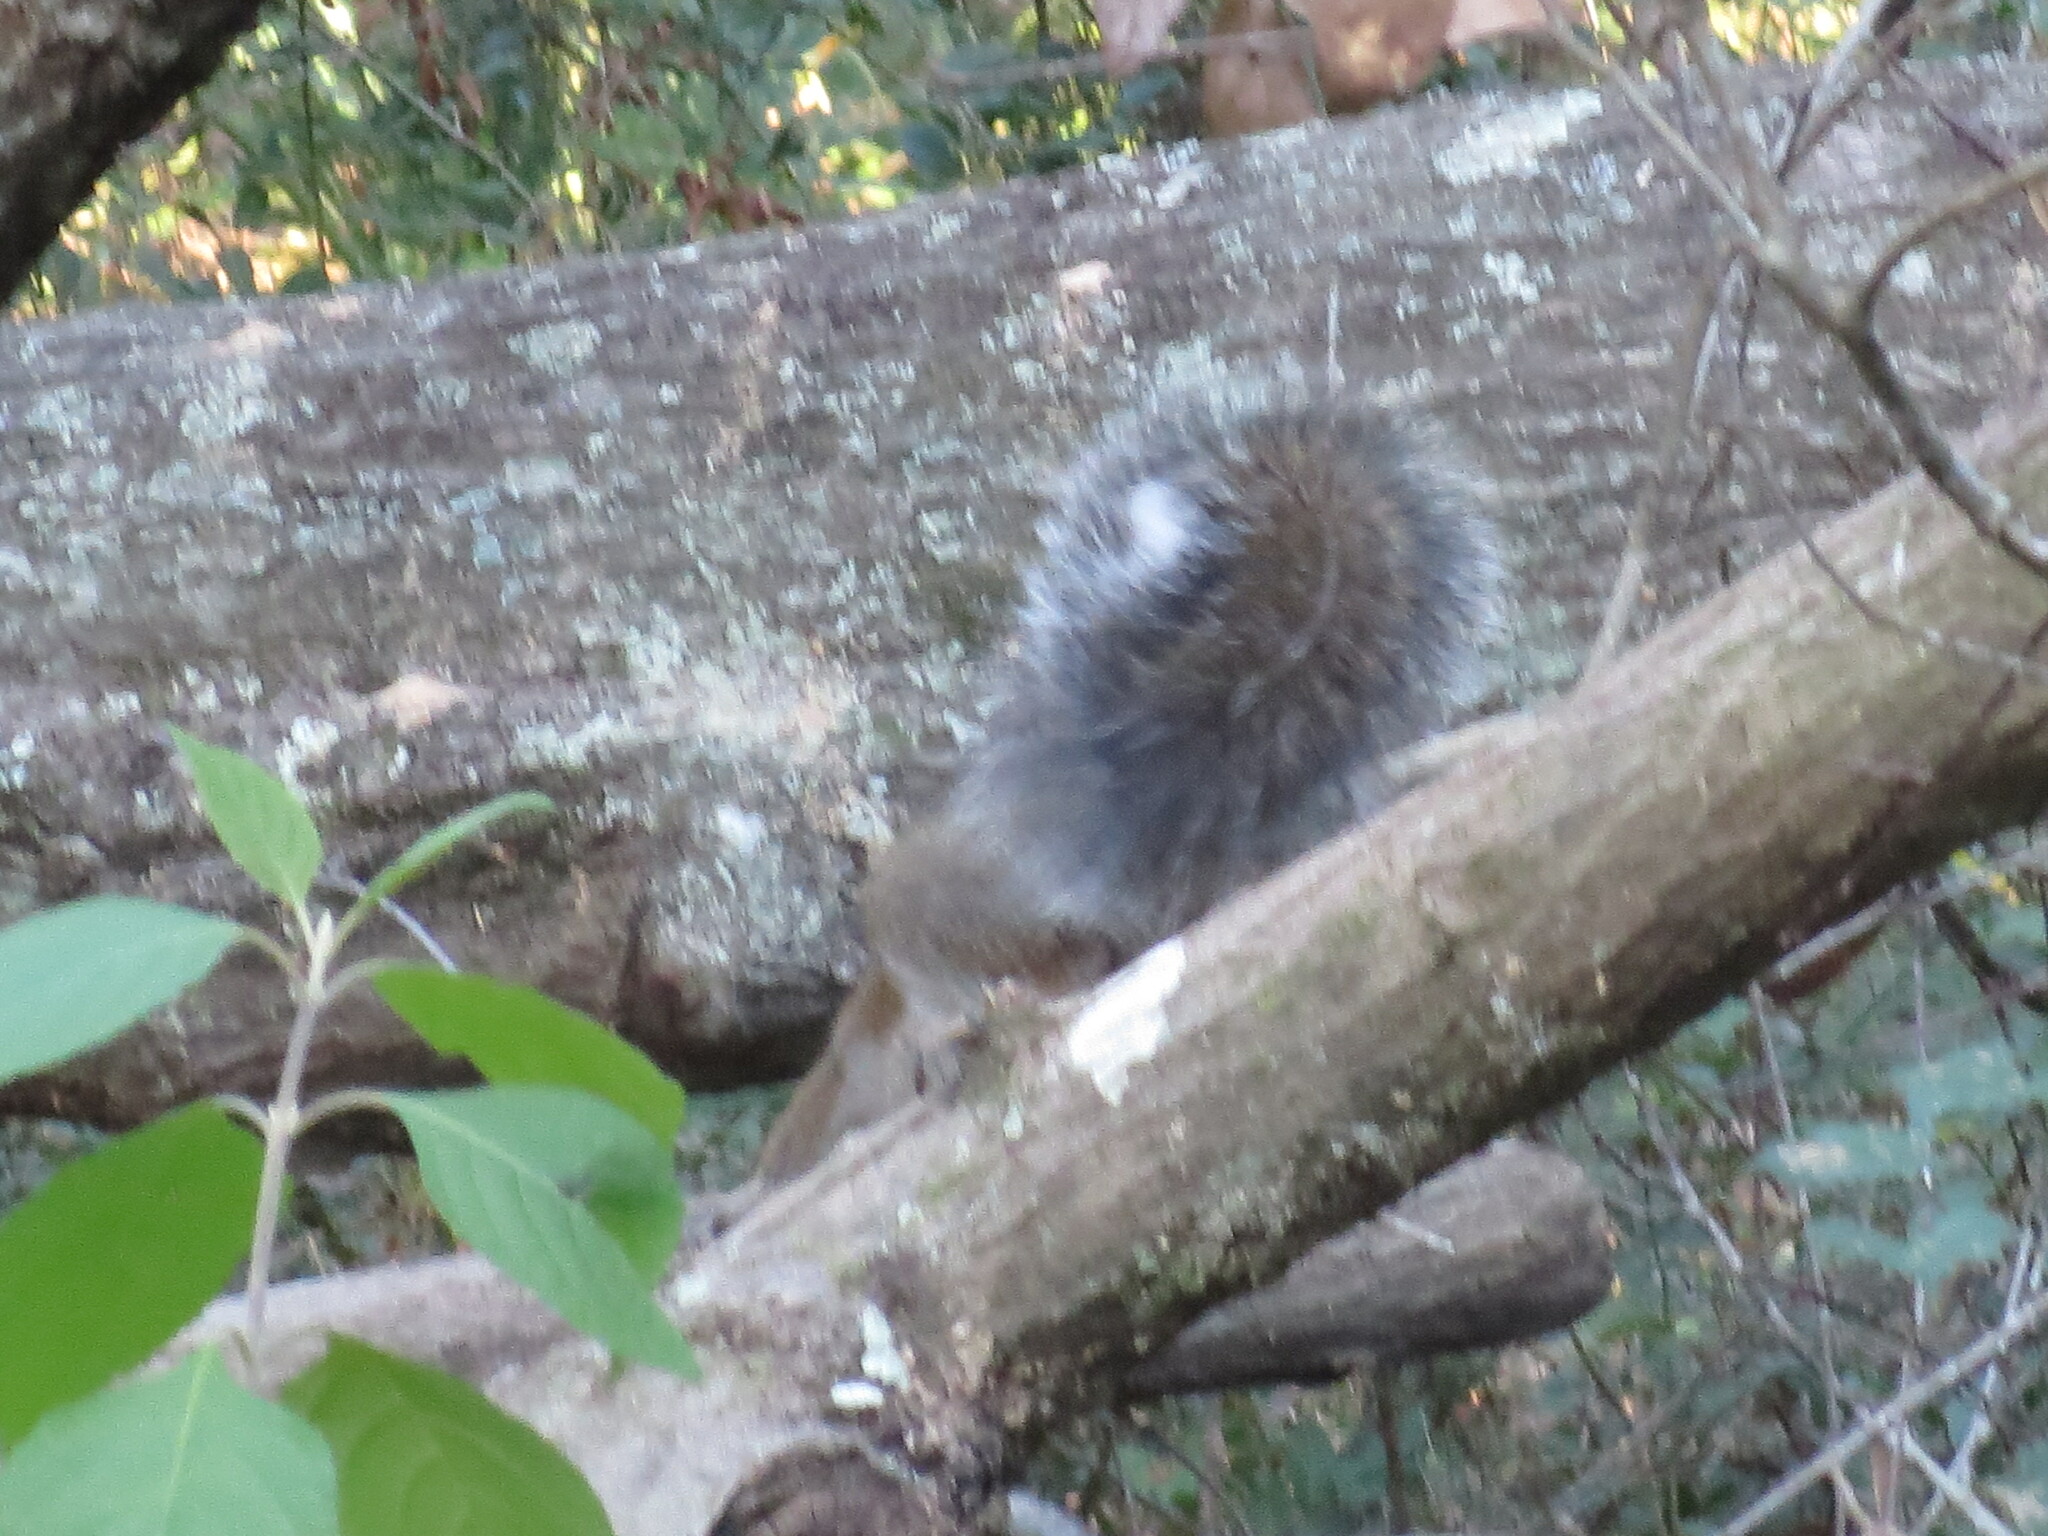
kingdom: Animalia
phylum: Chordata
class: Mammalia
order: Rodentia
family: Sciuridae
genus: Sciurus
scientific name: Sciurus carolinensis
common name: Eastern gray squirrel
